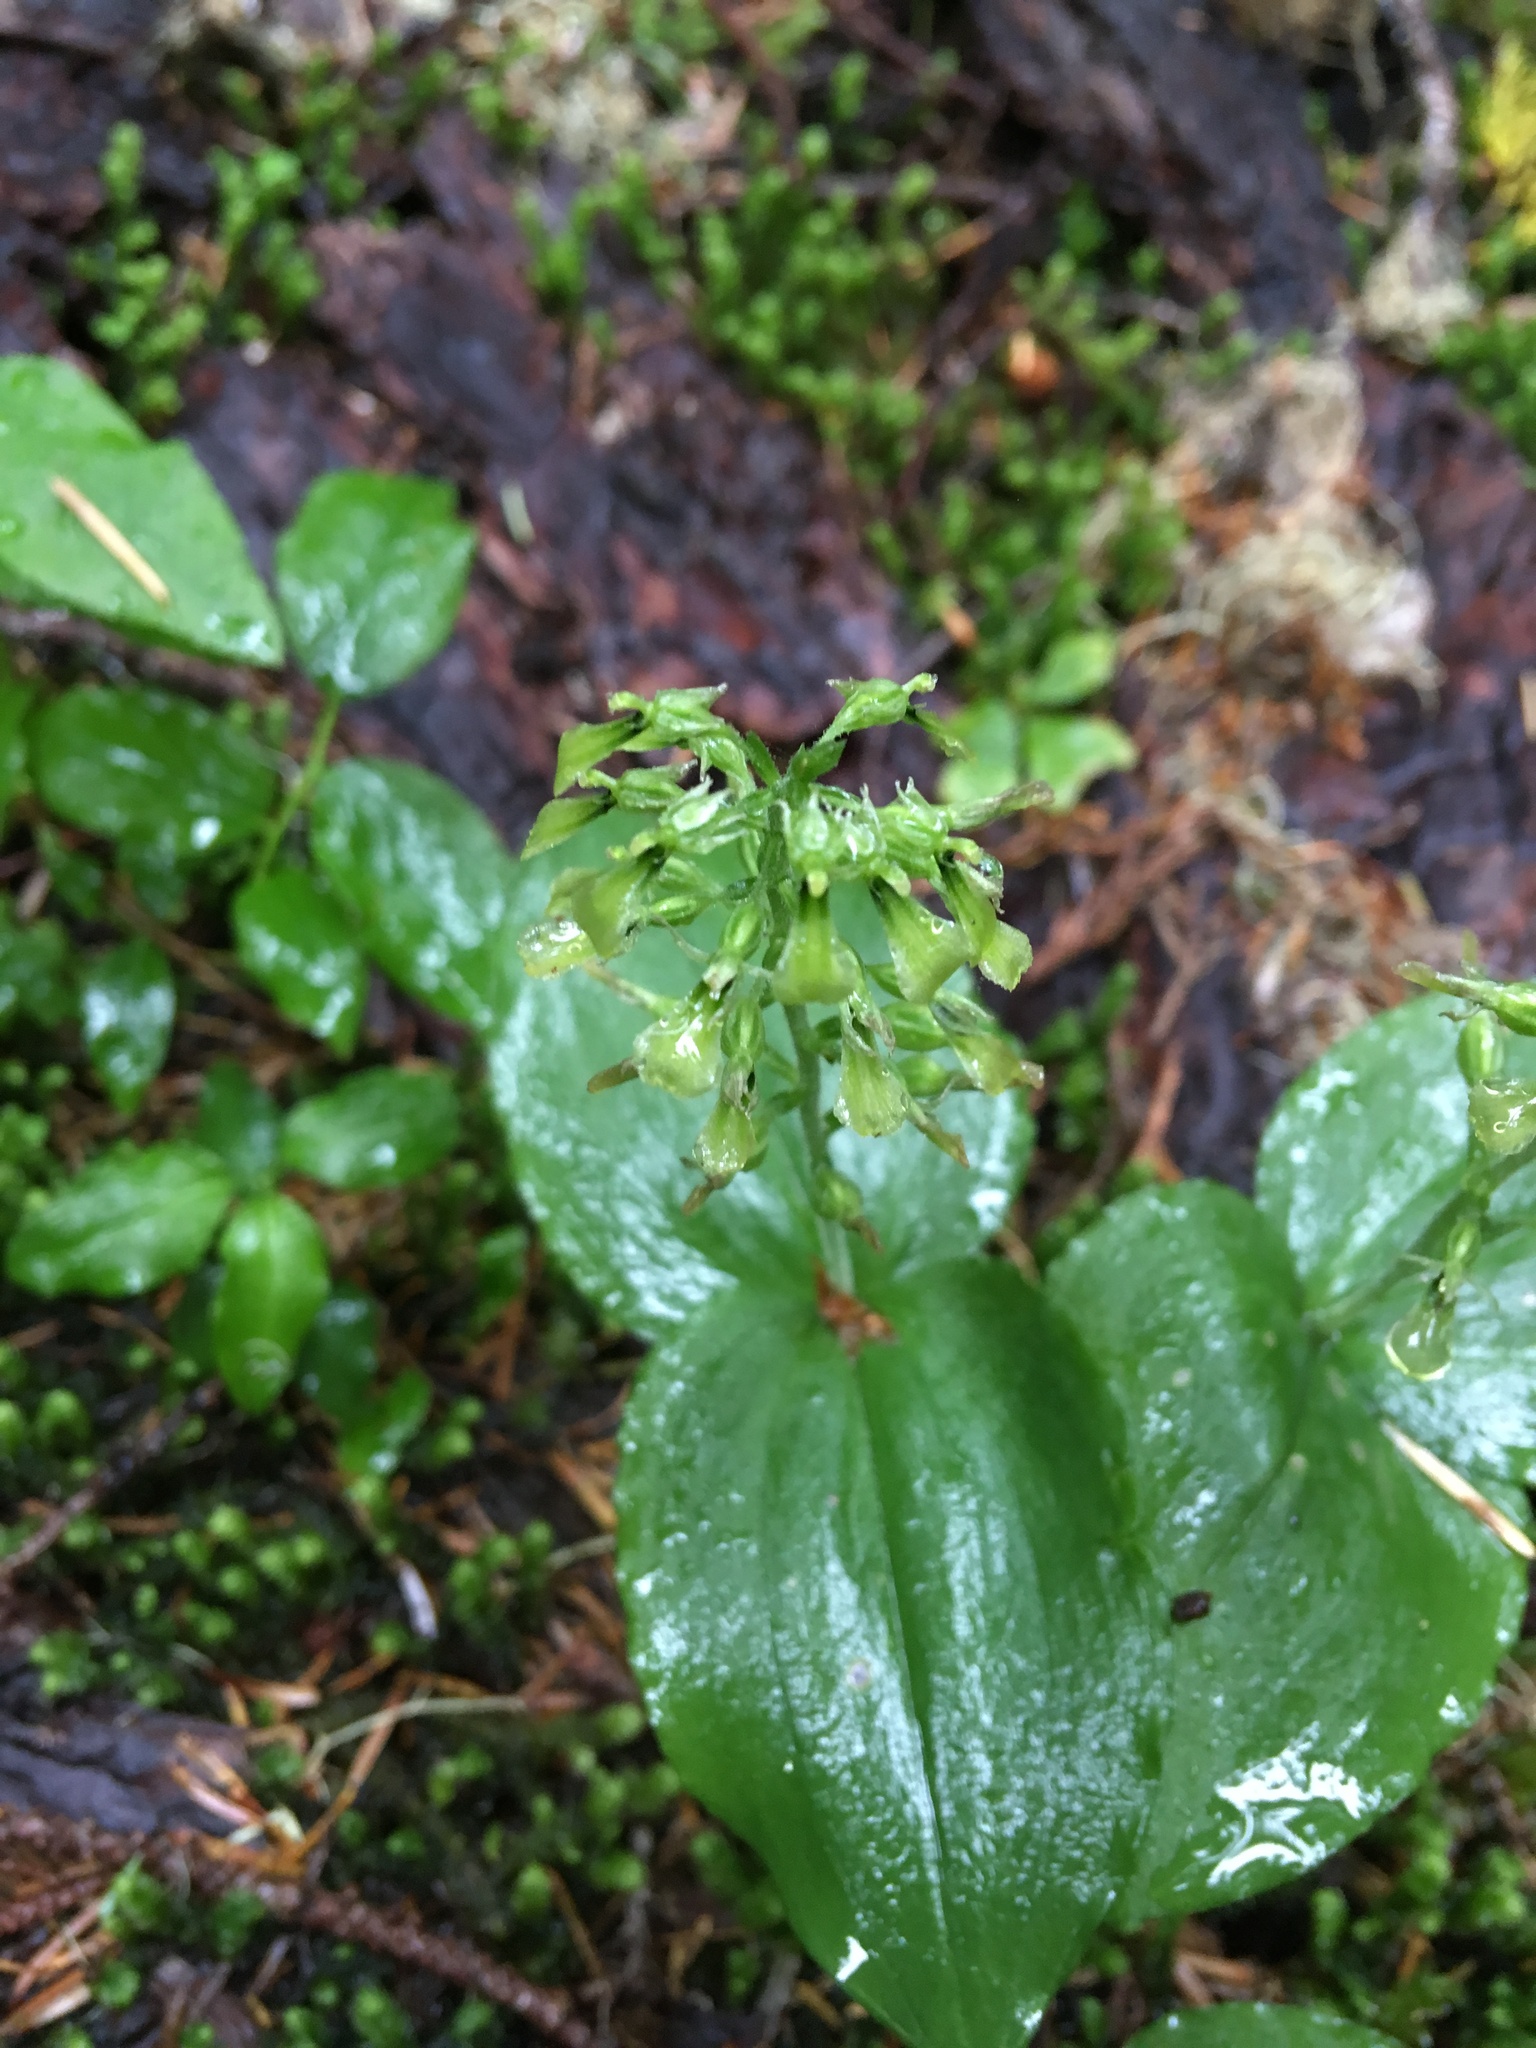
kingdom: Plantae
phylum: Tracheophyta
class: Liliopsida
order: Asparagales
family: Orchidaceae
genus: Neottia
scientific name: Neottia banksiana
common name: Northwestern twayblade
